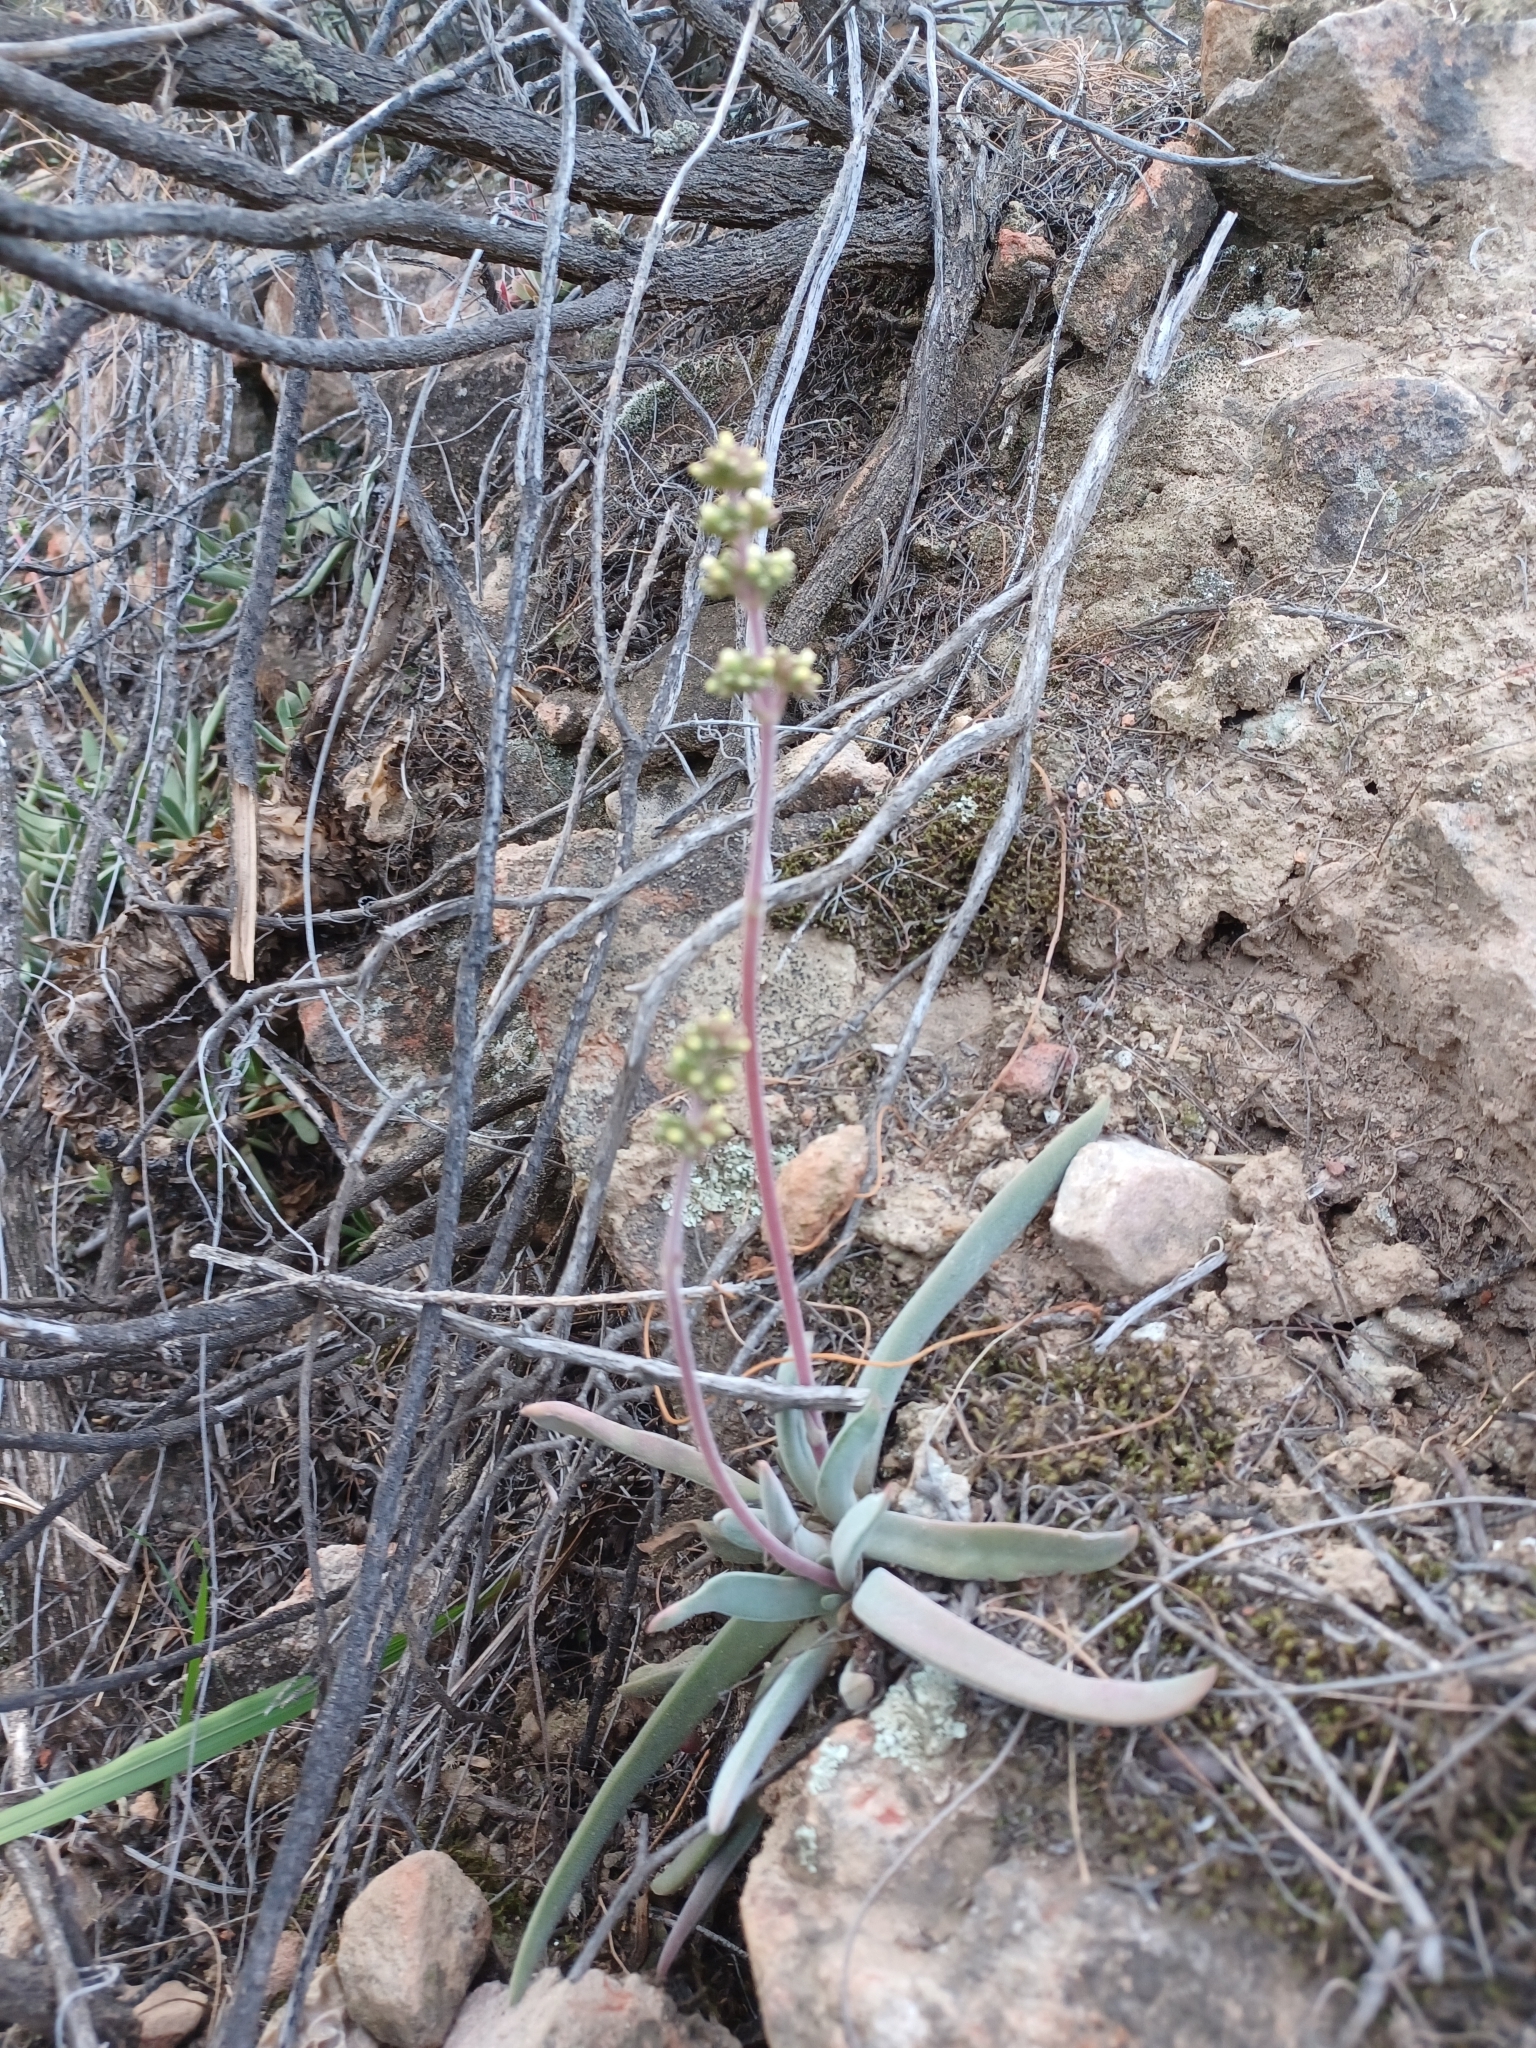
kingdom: Plantae
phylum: Tracheophyta
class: Magnoliopsida
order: Saxifragales
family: Crassulaceae
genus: Crassula
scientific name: Crassula nudicaulis
